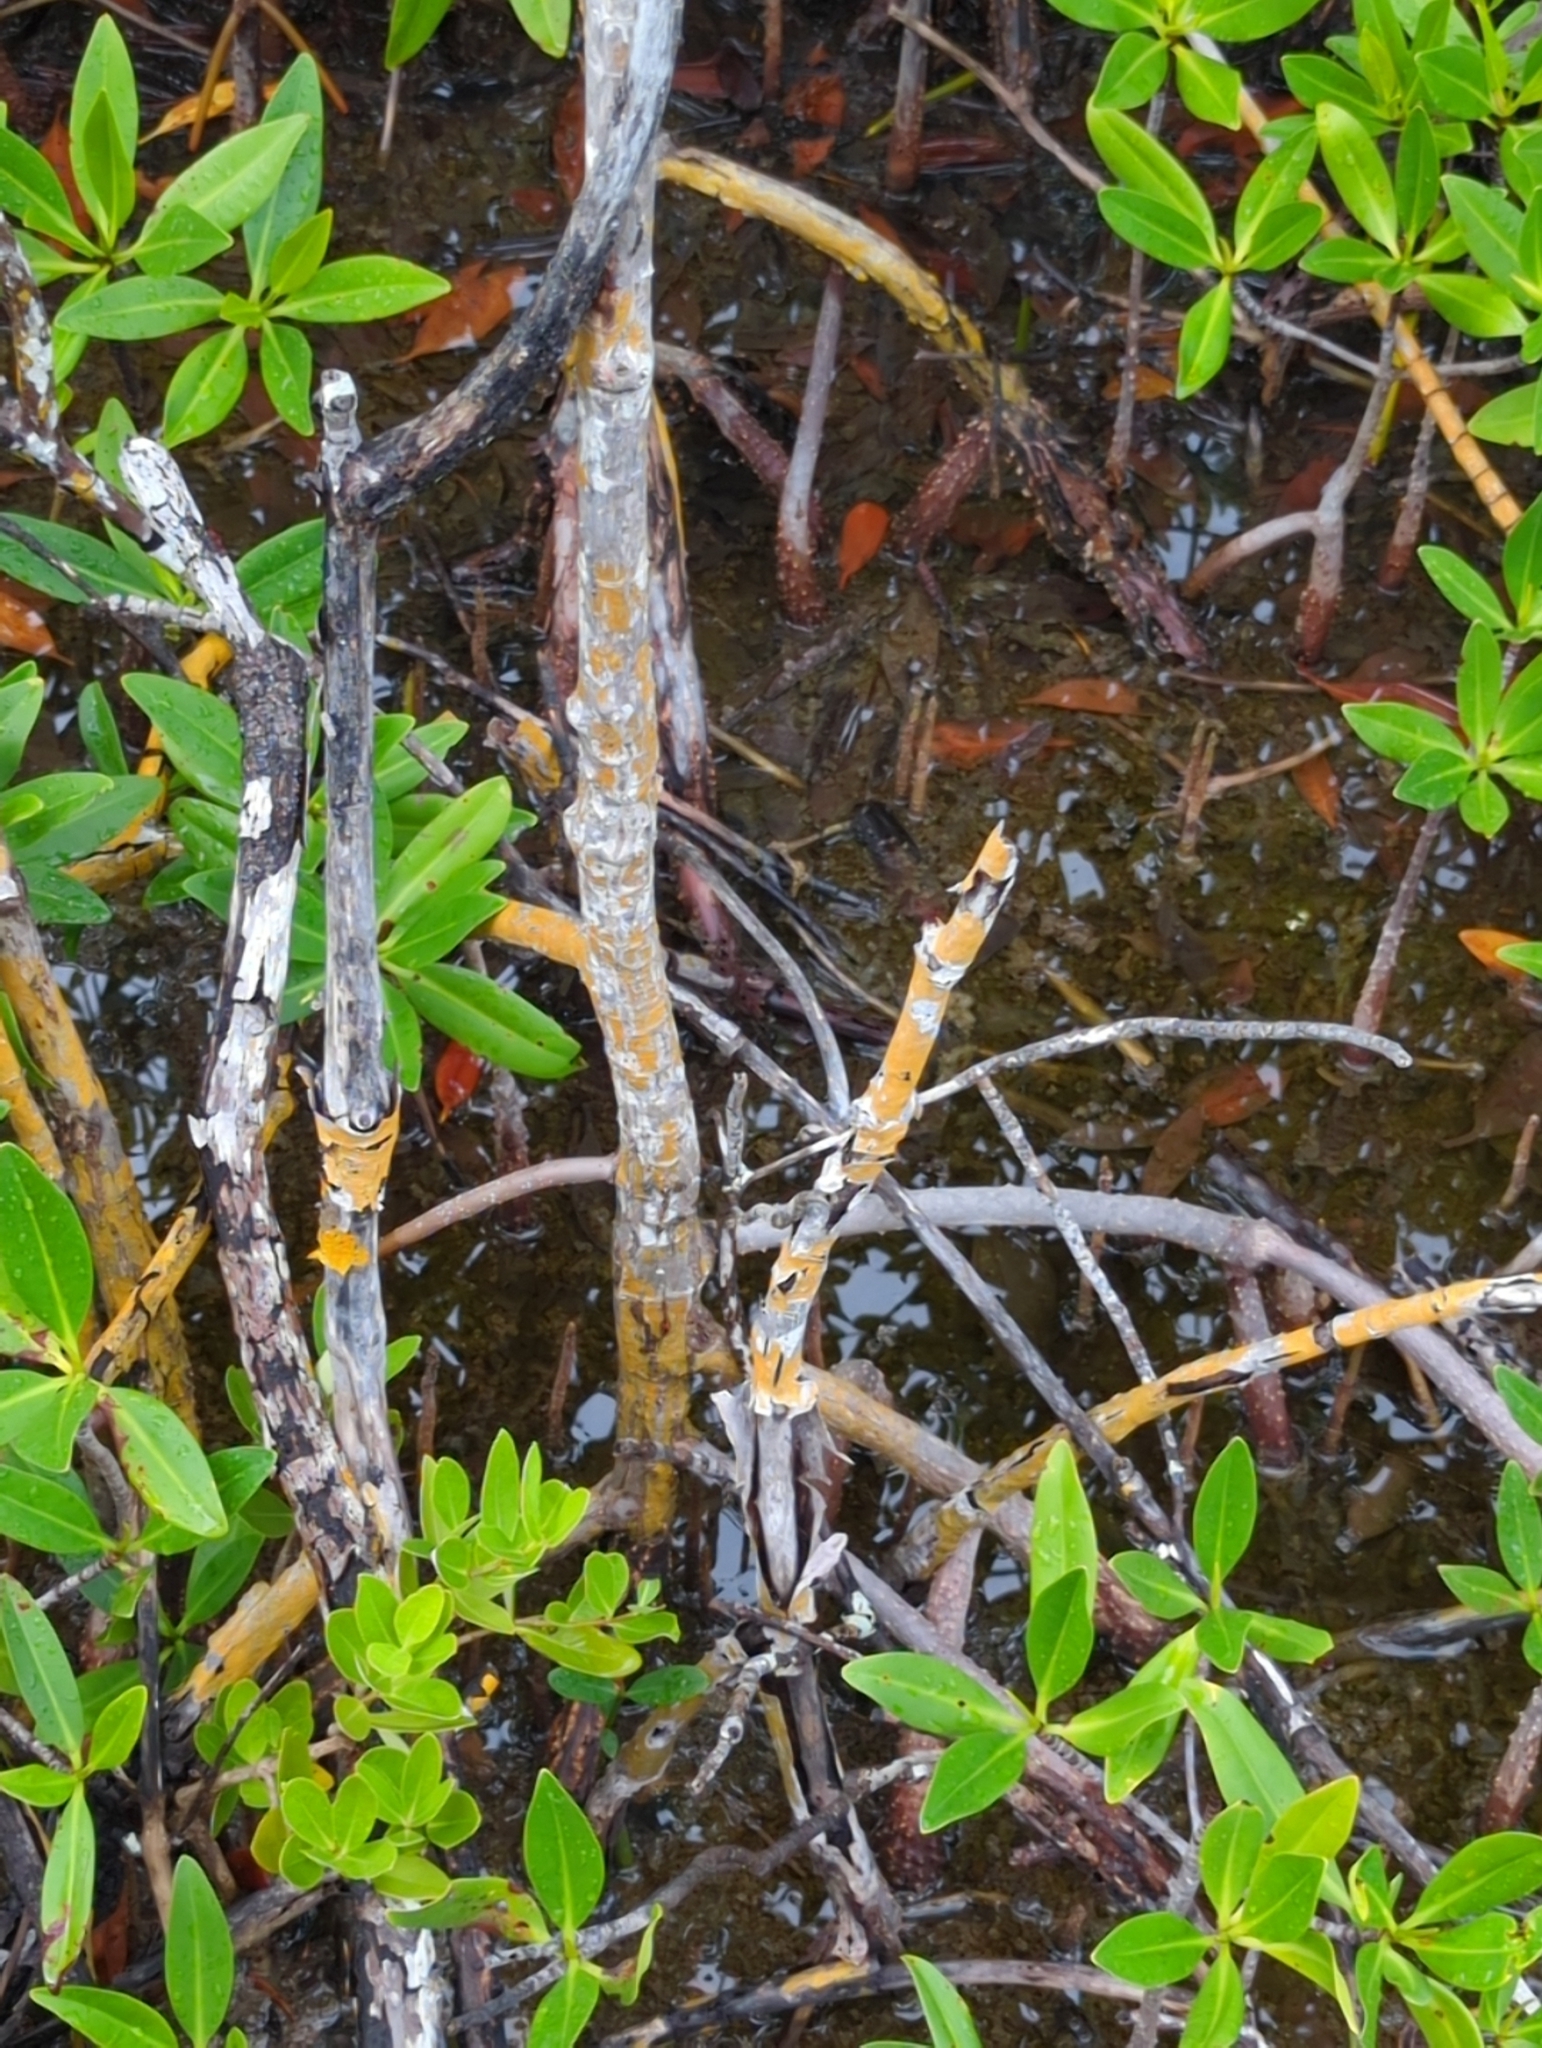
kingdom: Plantae
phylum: Tracheophyta
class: Magnoliopsida
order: Malpighiales
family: Rhizophoraceae
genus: Rhizophora
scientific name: Rhizophora mangle
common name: Red mangrove
